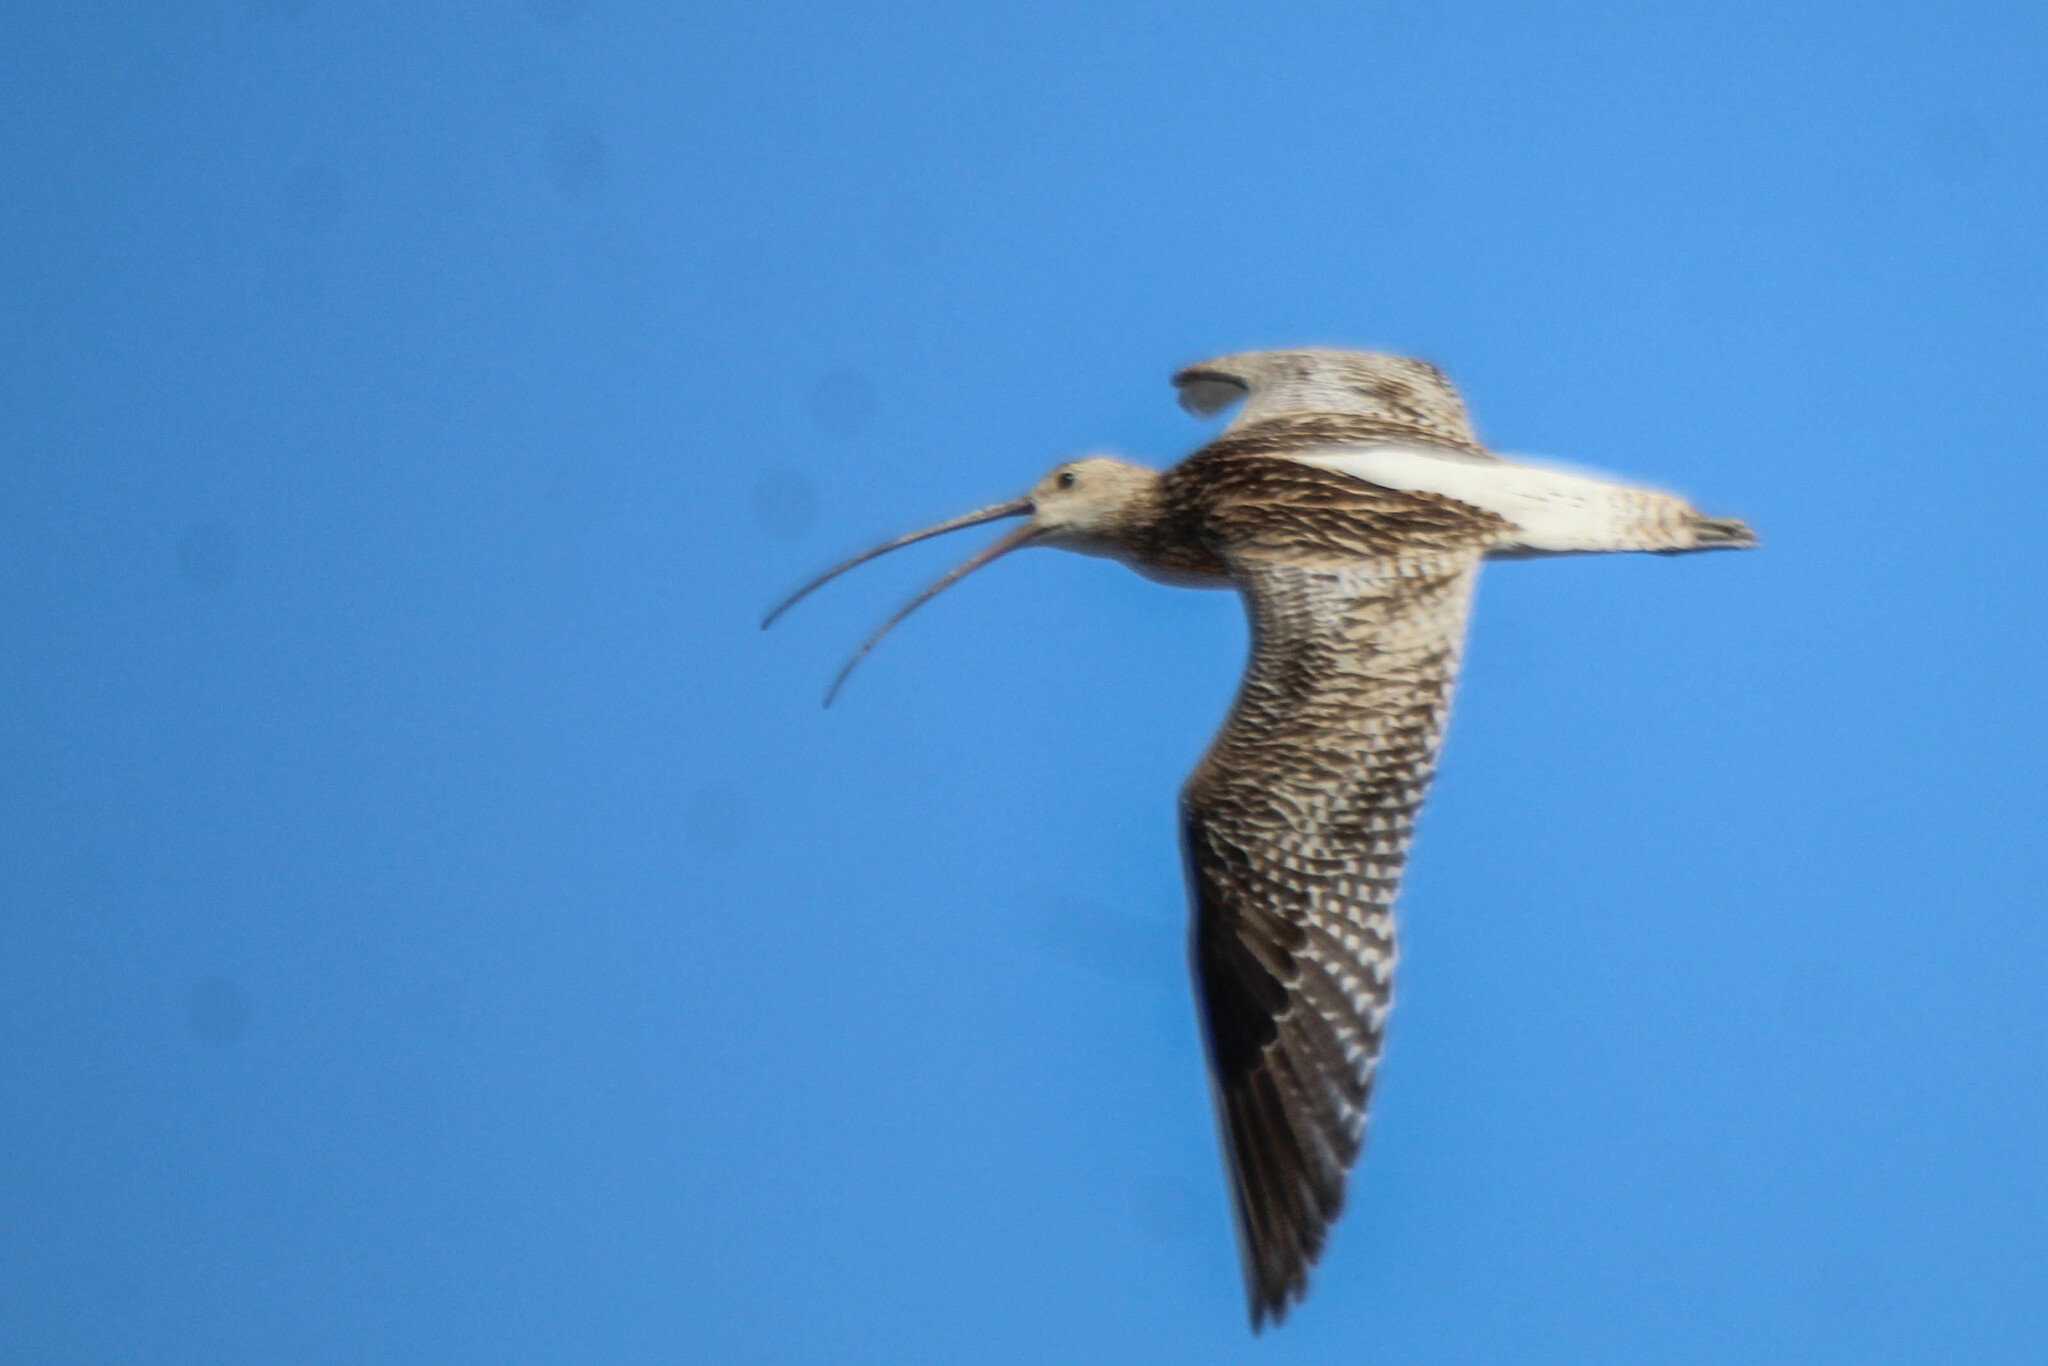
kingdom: Animalia
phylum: Chordata
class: Aves
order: Charadriiformes
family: Scolopacidae
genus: Numenius
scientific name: Numenius arquata
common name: Eurasian curlew
